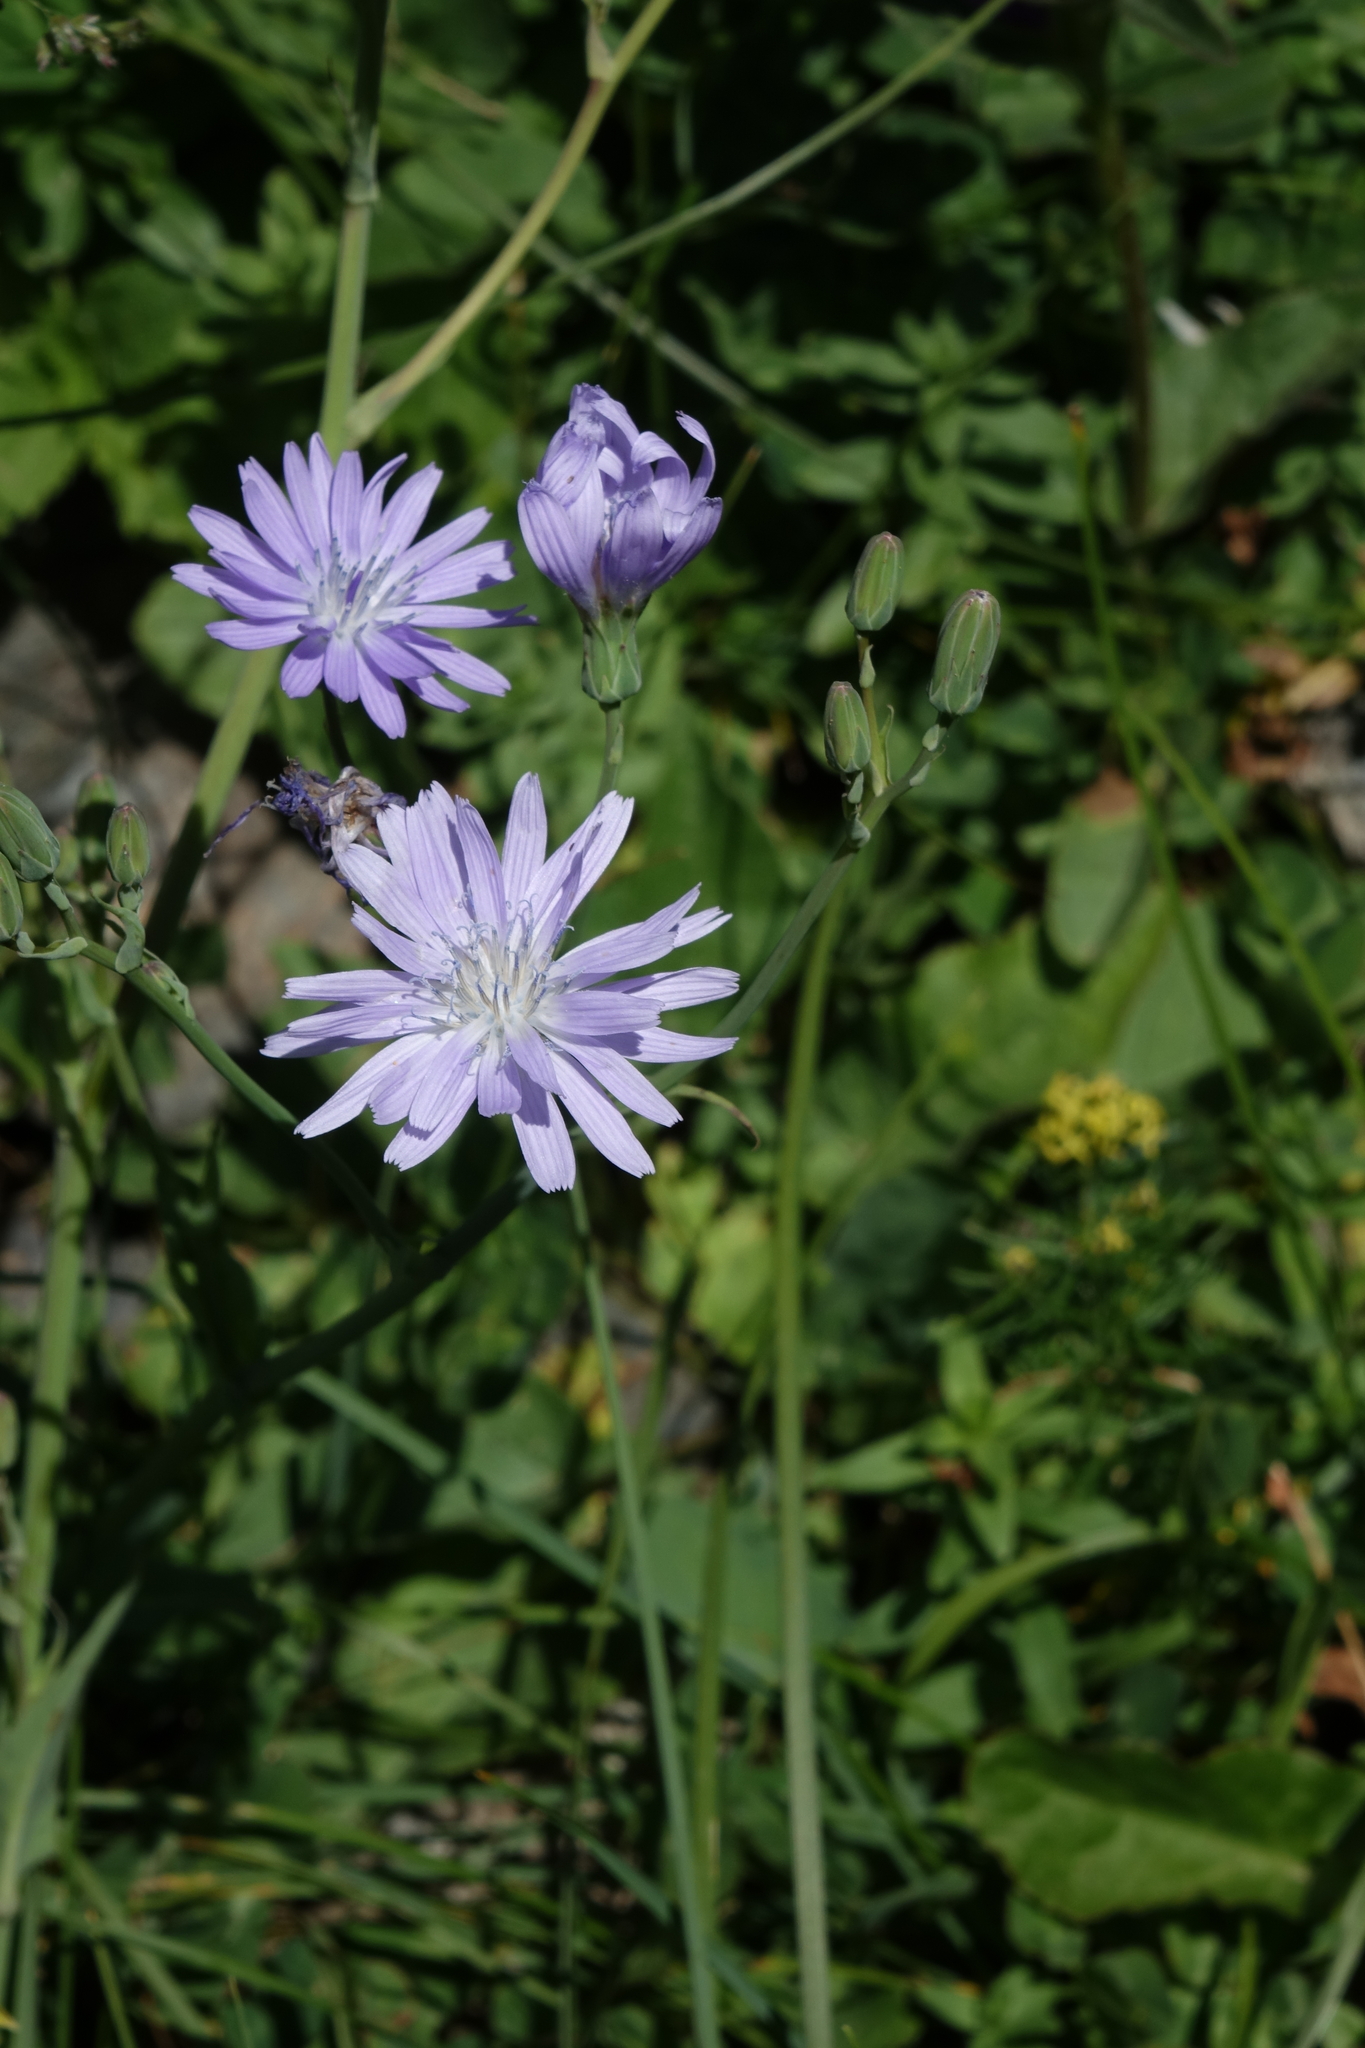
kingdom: Plantae
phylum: Tracheophyta
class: Magnoliopsida
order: Asterales
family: Asteraceae
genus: Lactuca
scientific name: Lactuca racemosa
